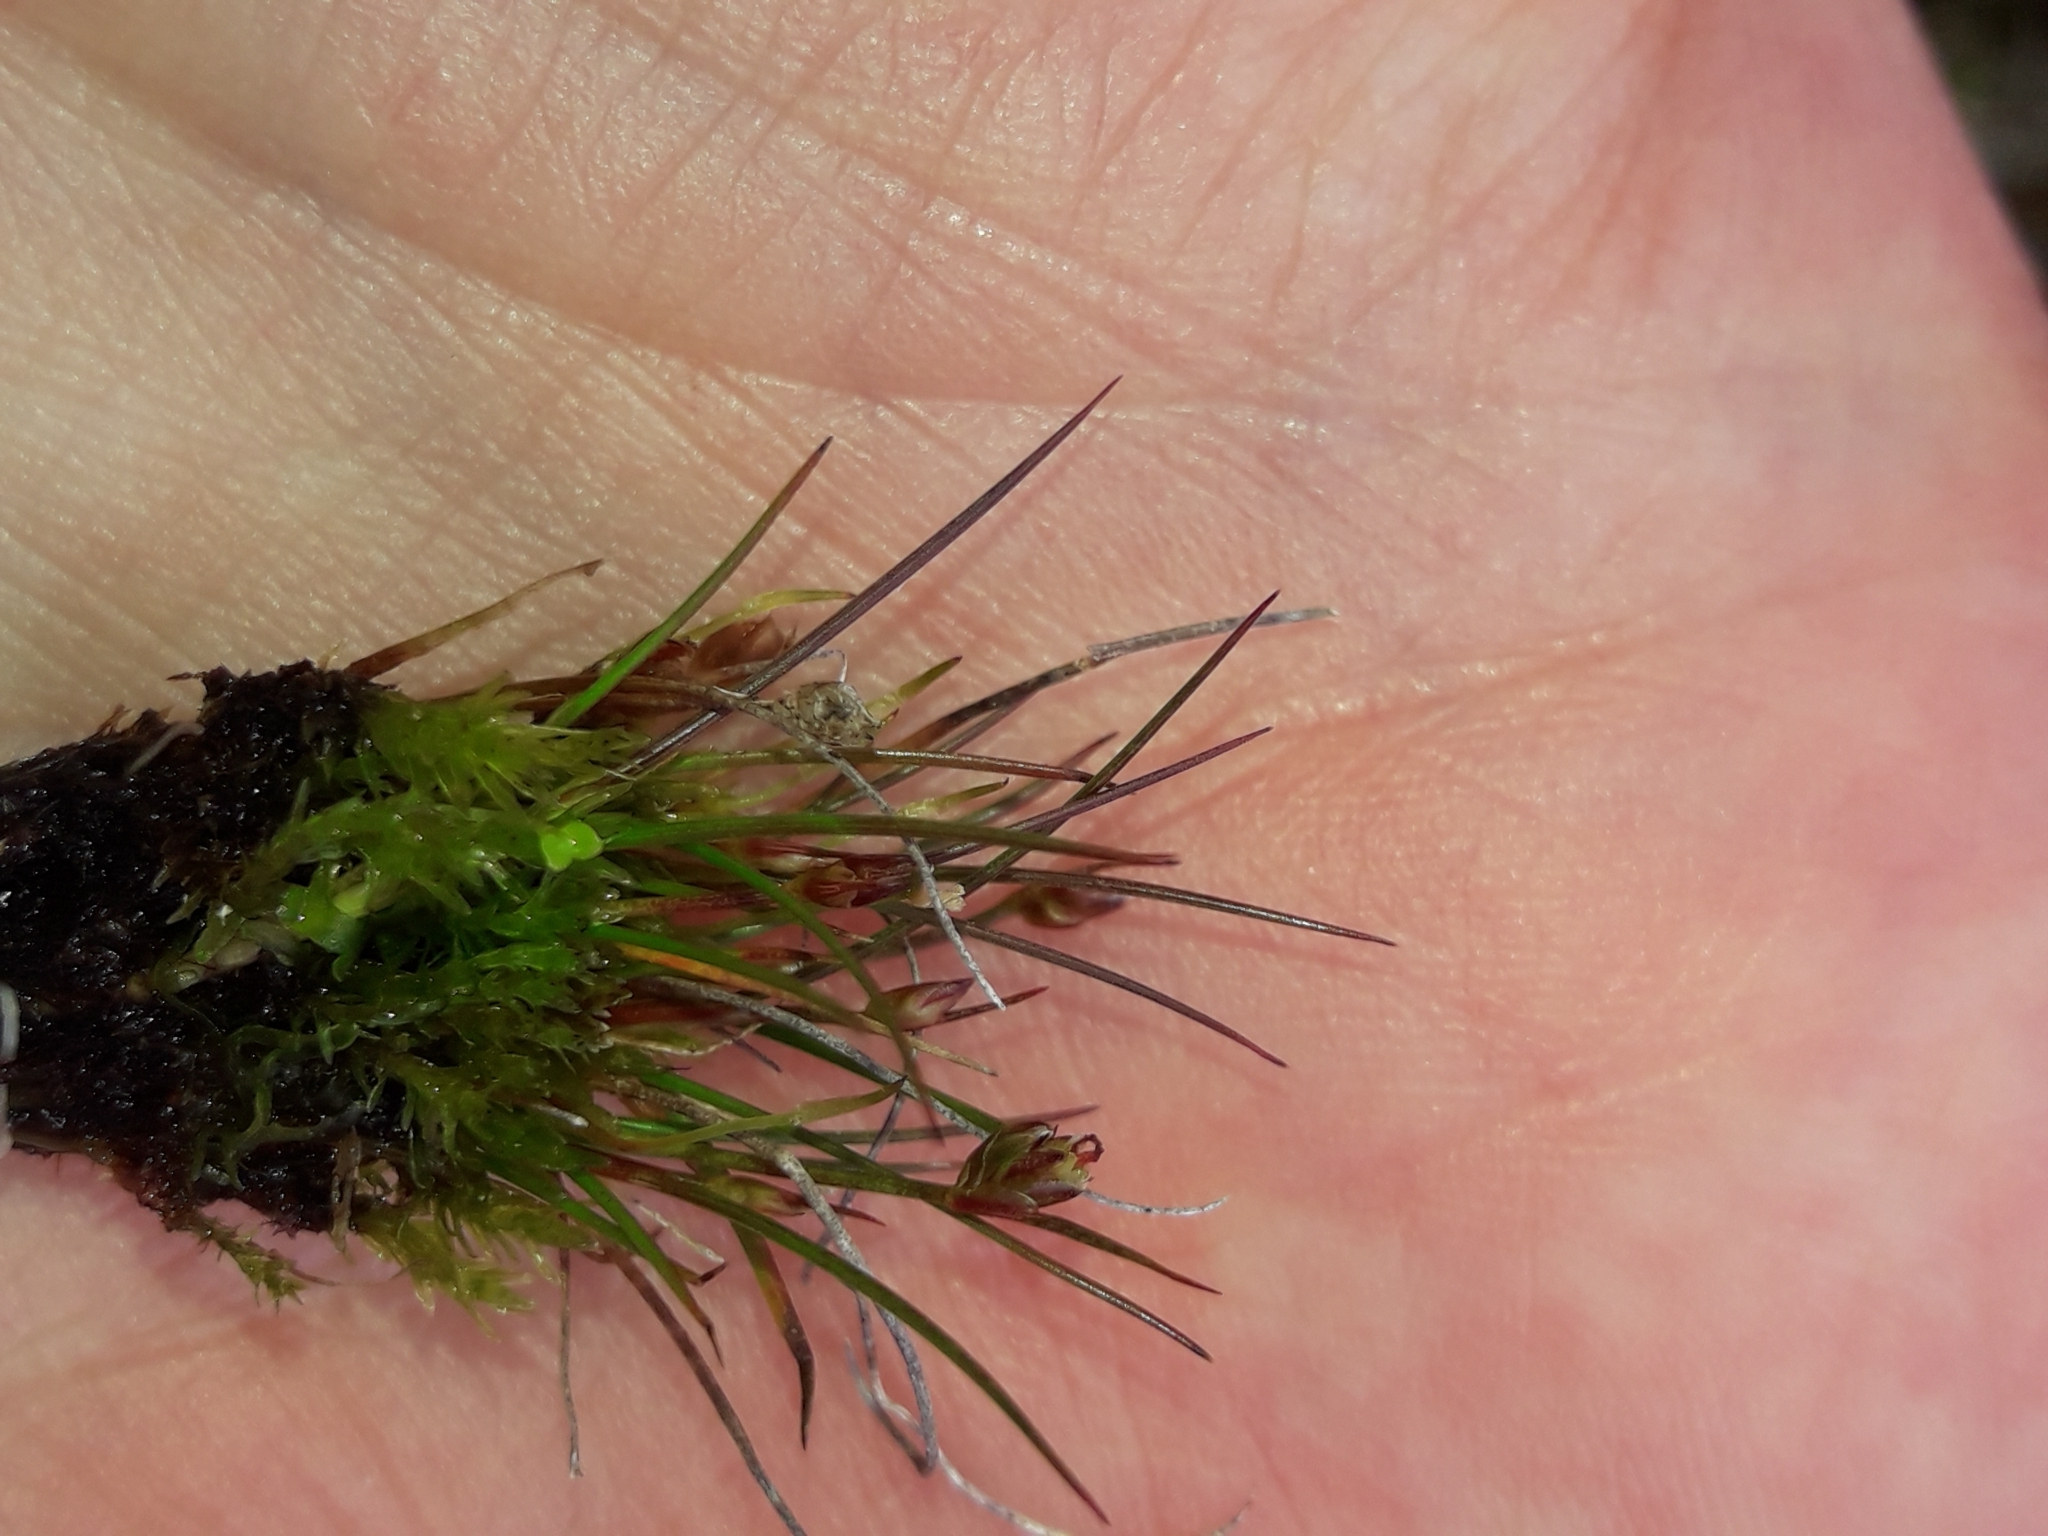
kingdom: Plantae
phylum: Tracheophyta
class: Liliopsida
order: Poales
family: Juncaceae
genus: Juncus
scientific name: Juncus pusillus
